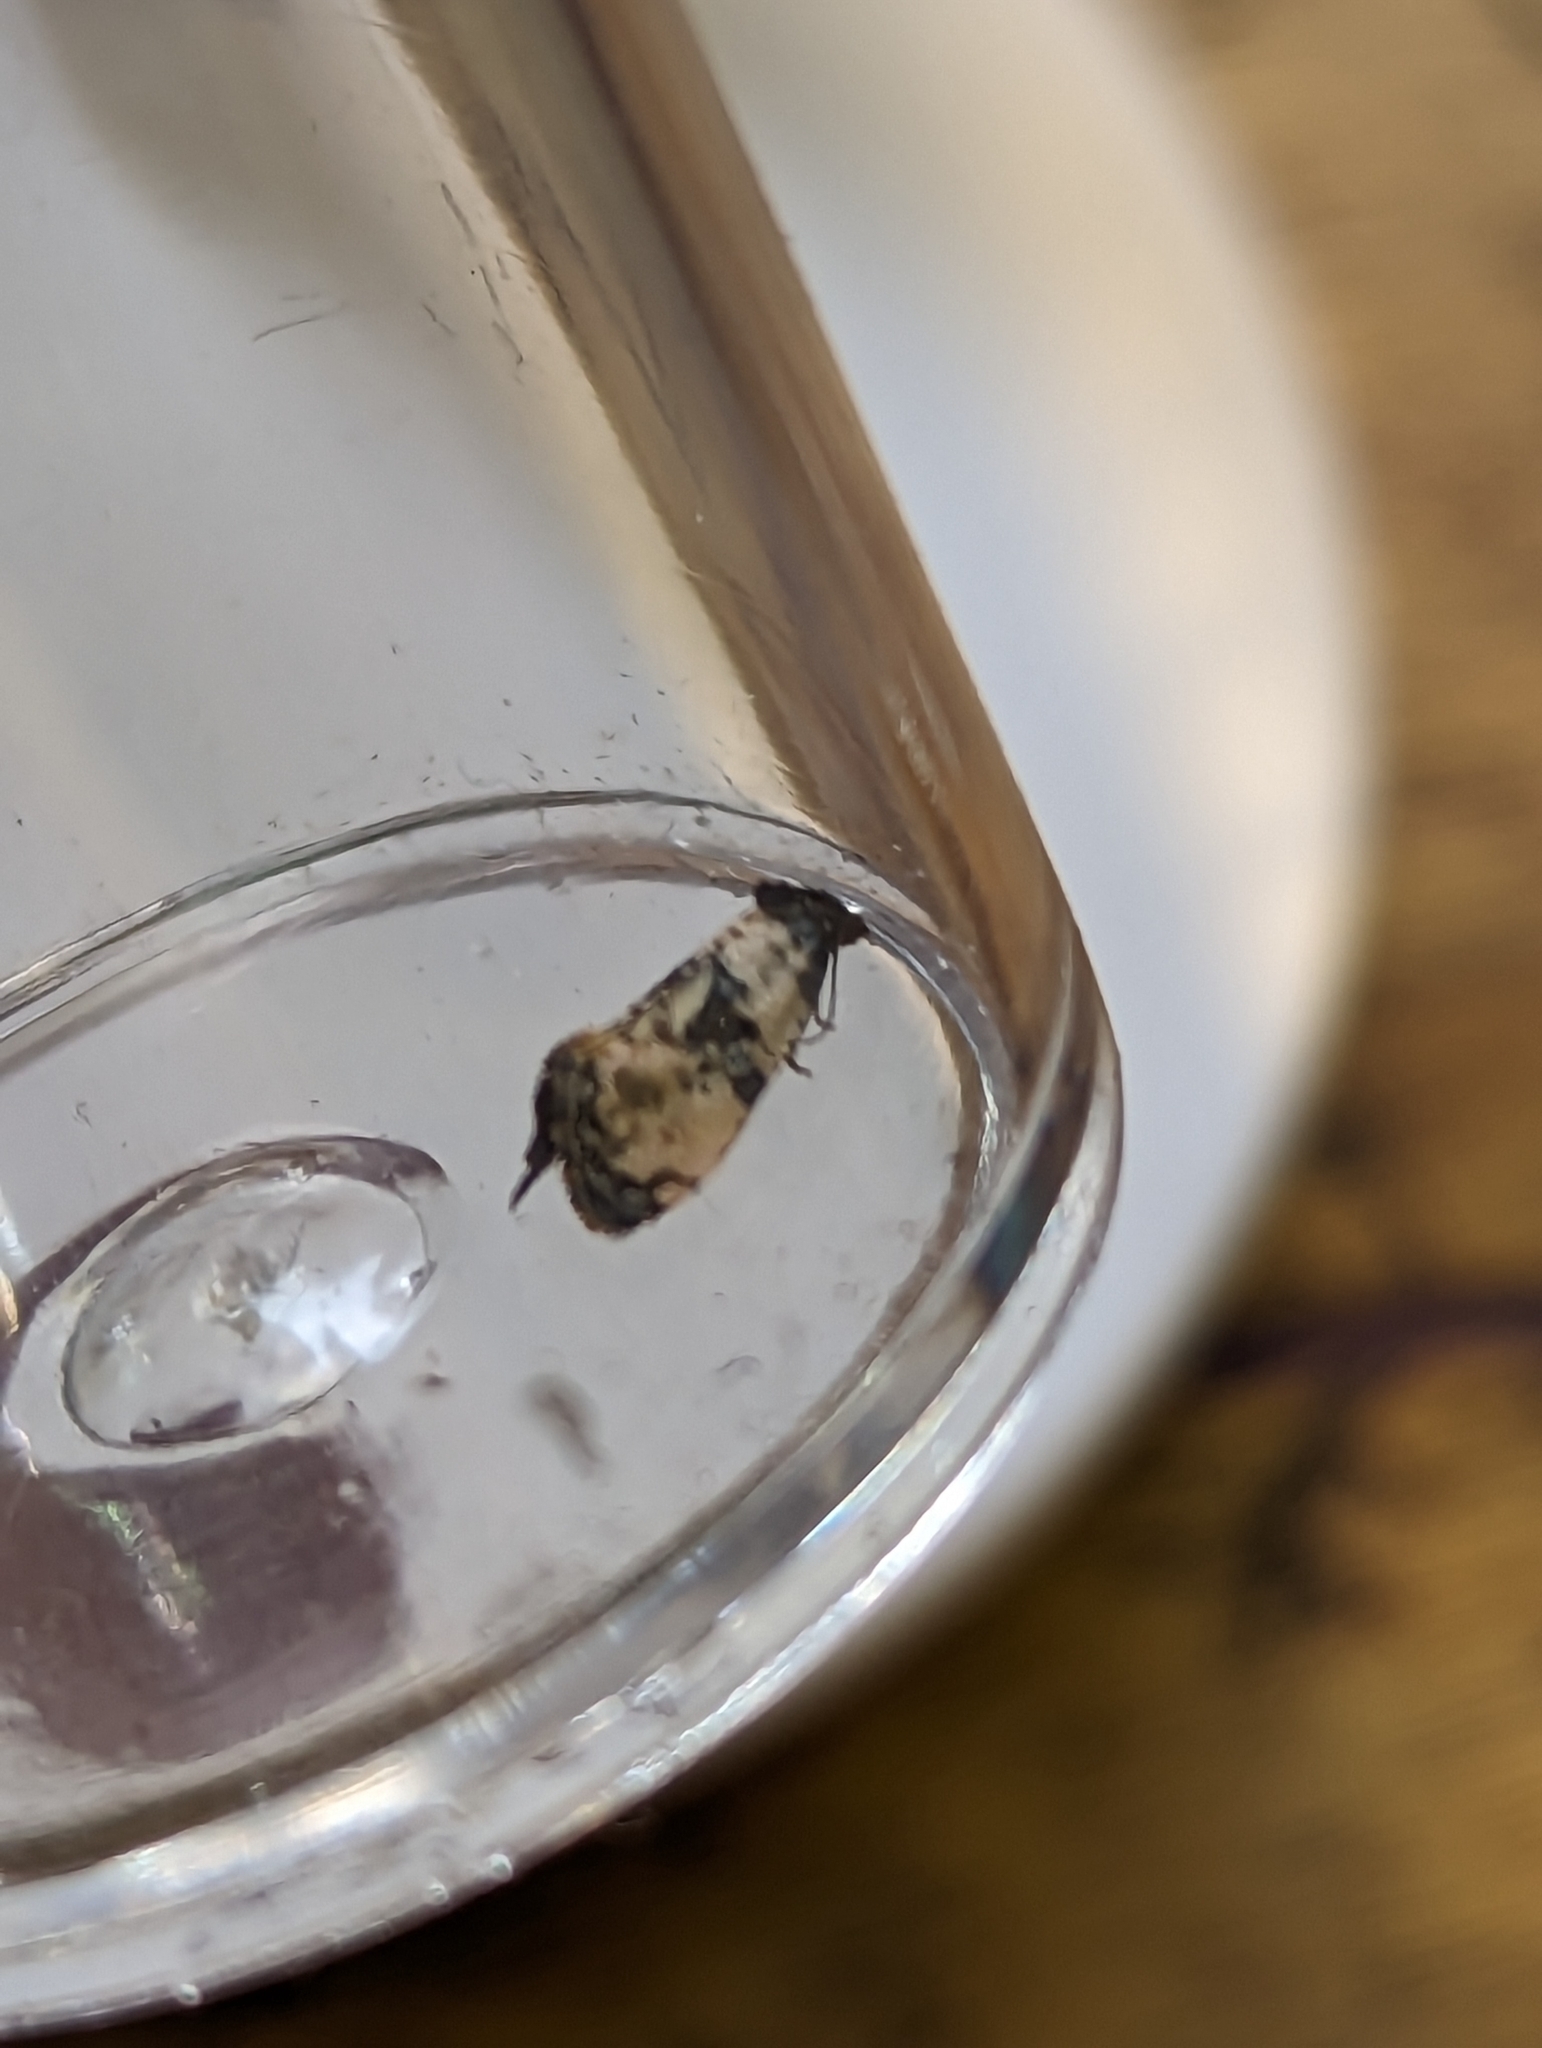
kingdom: Animalia
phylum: Arthropoda
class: Insecta
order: Lepidoptera
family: Tortricidae
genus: Cochylis
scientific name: Cochylis atricapitana
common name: Tortricid moth
